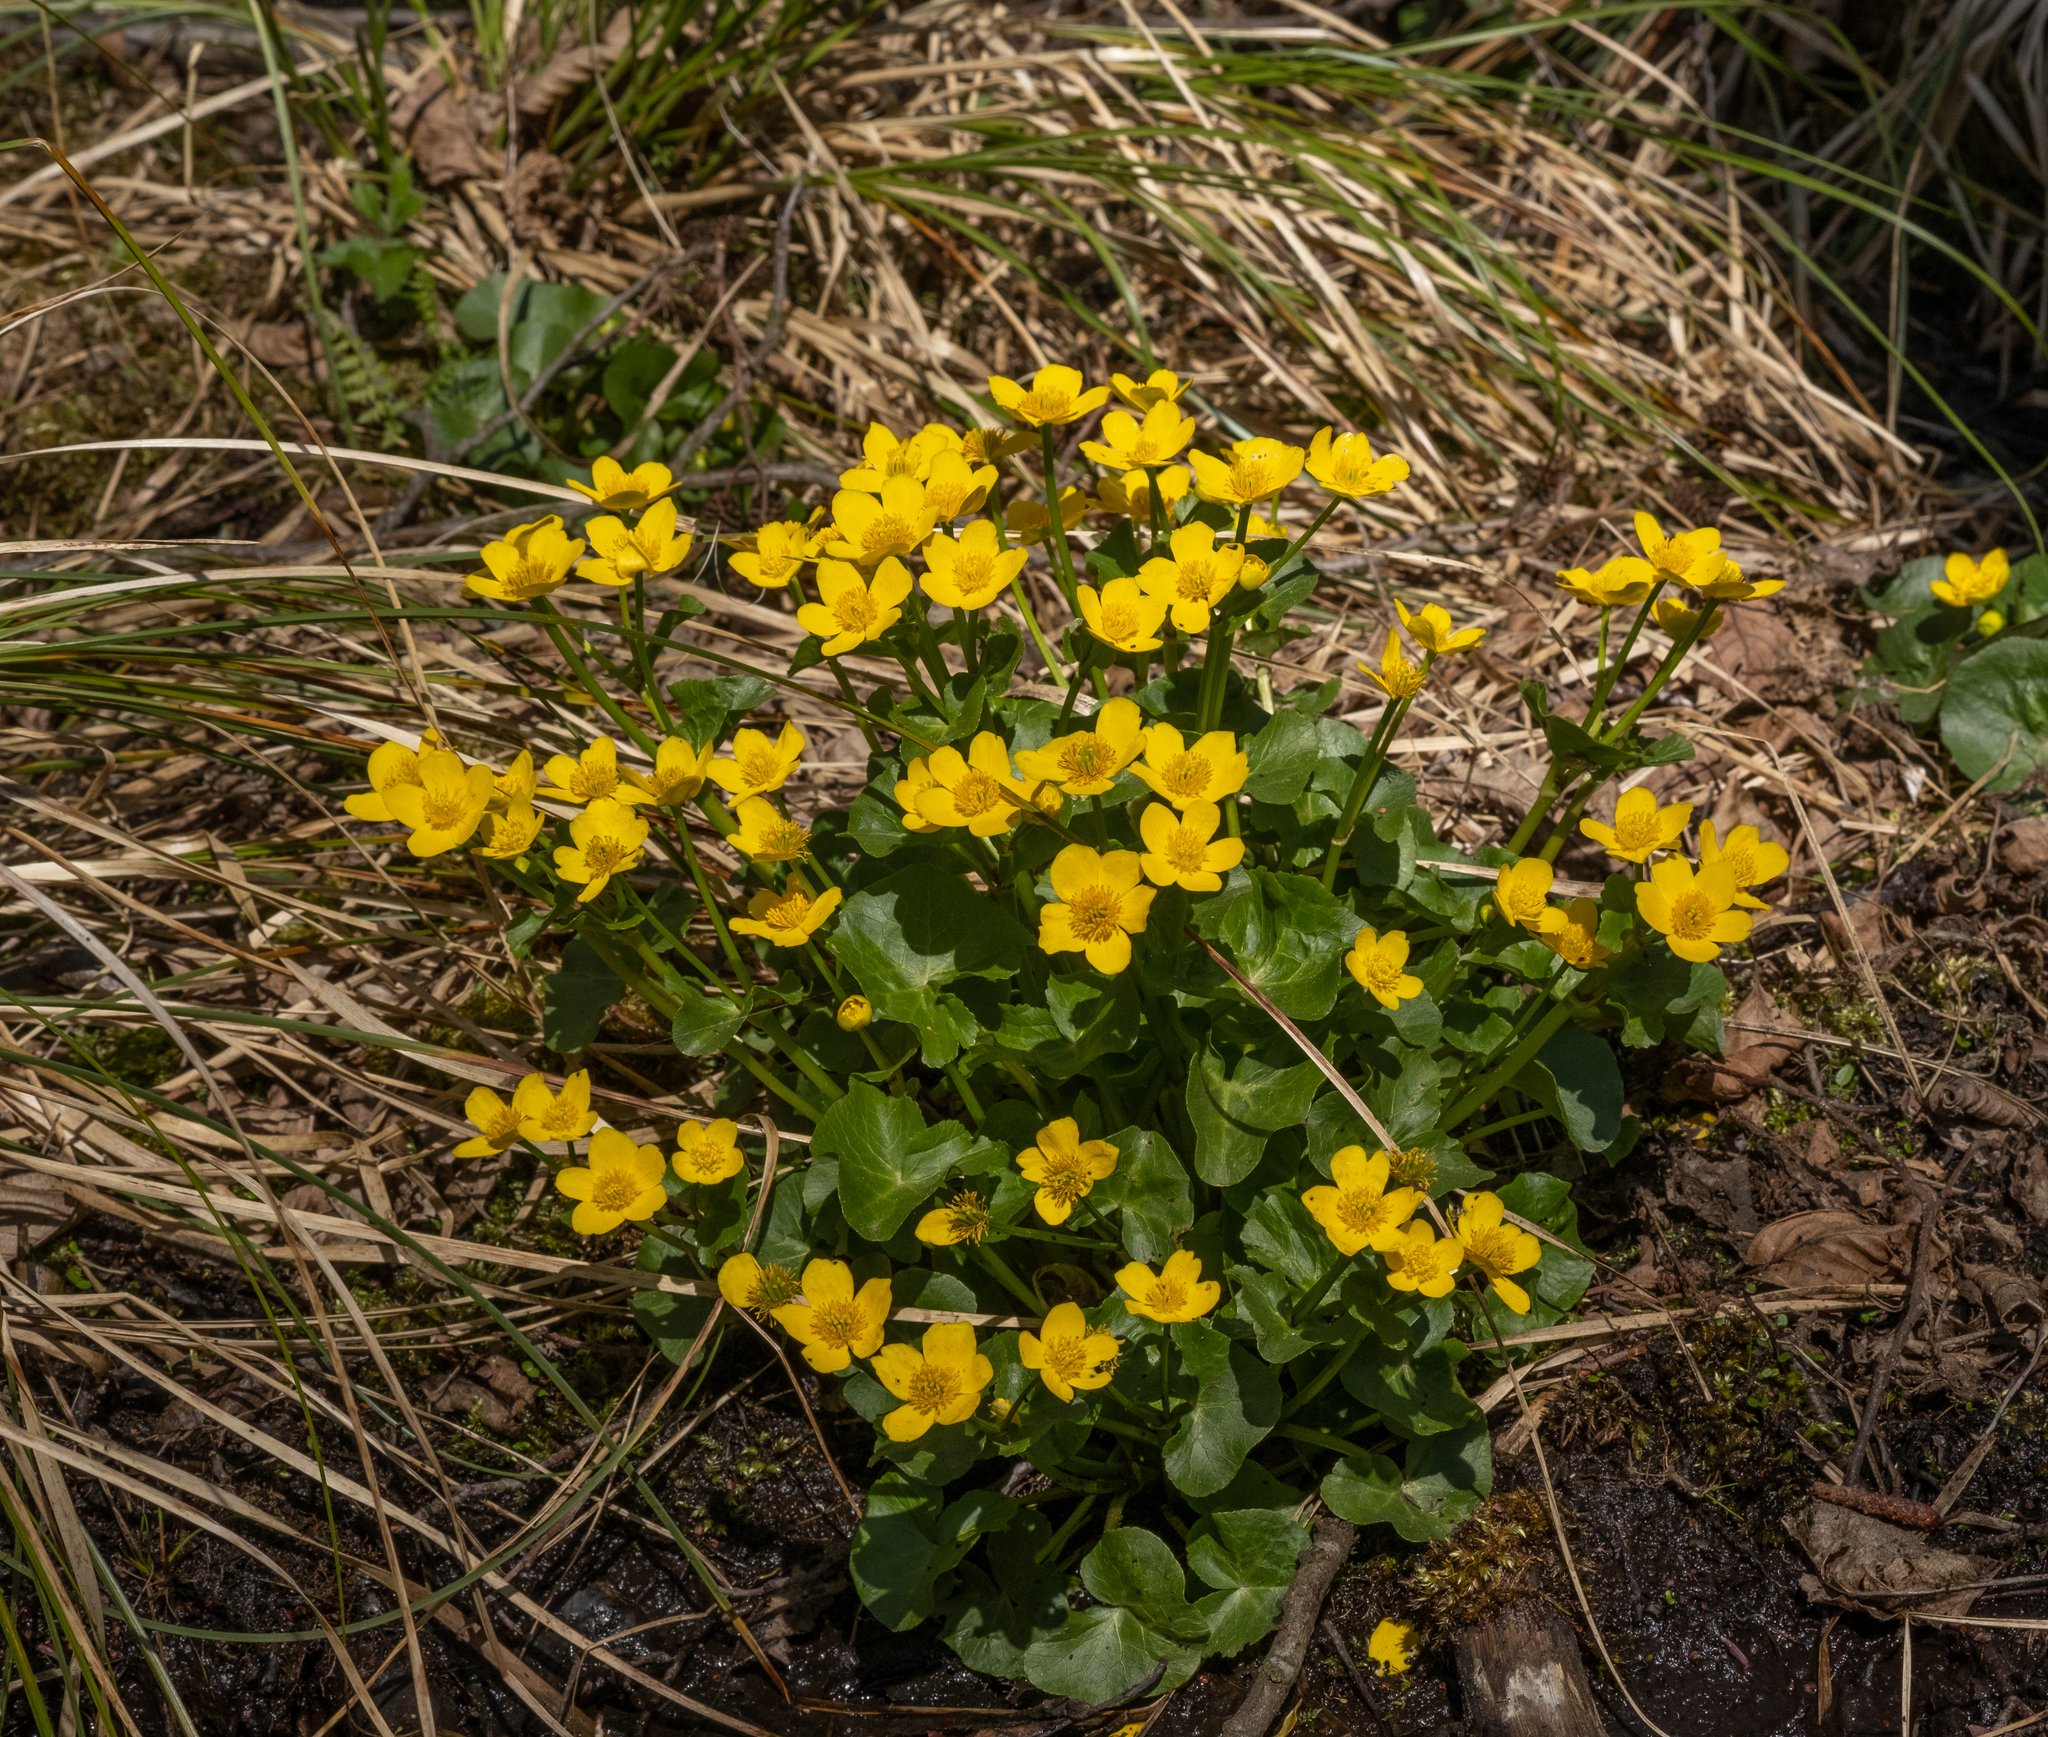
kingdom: Plantae
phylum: Tracheophyta
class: Magnoliopsida
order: Ranunculales
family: Ranunculaceae
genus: Caltha
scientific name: Caltha palustris
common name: Marsh marigold
